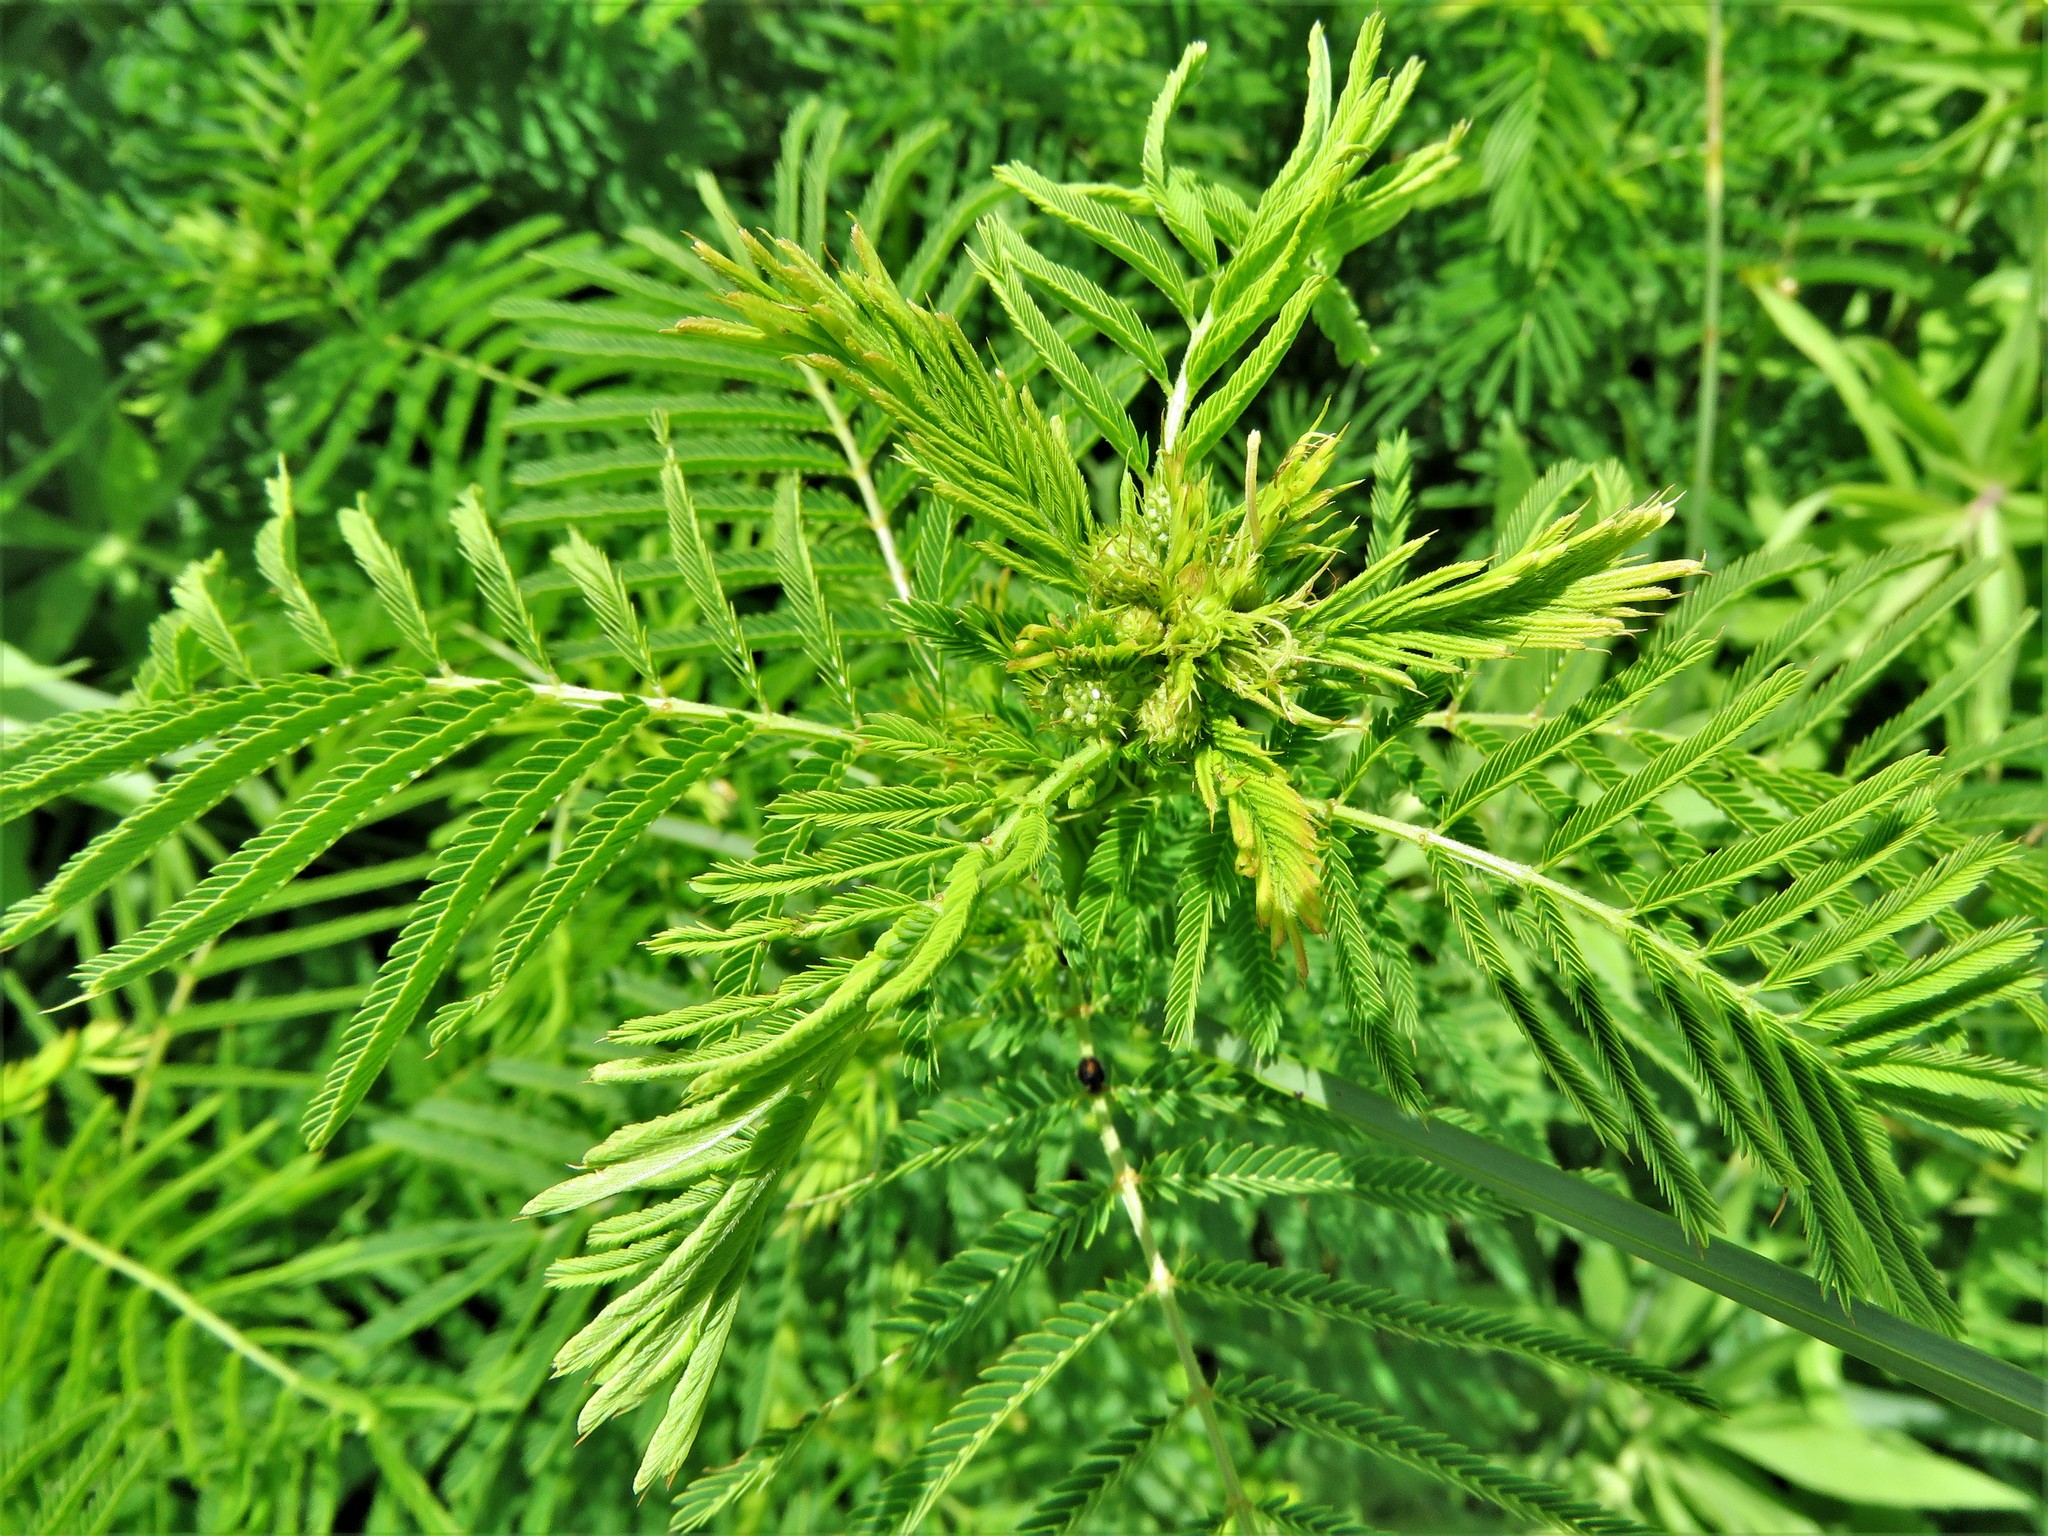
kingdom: Plantae
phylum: Tracheophyta
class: Magnoliopsida
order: Fabales
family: Fabaceae
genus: Desmanthus
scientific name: Desmanthus illinoensis
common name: Illinois bundle-flower
